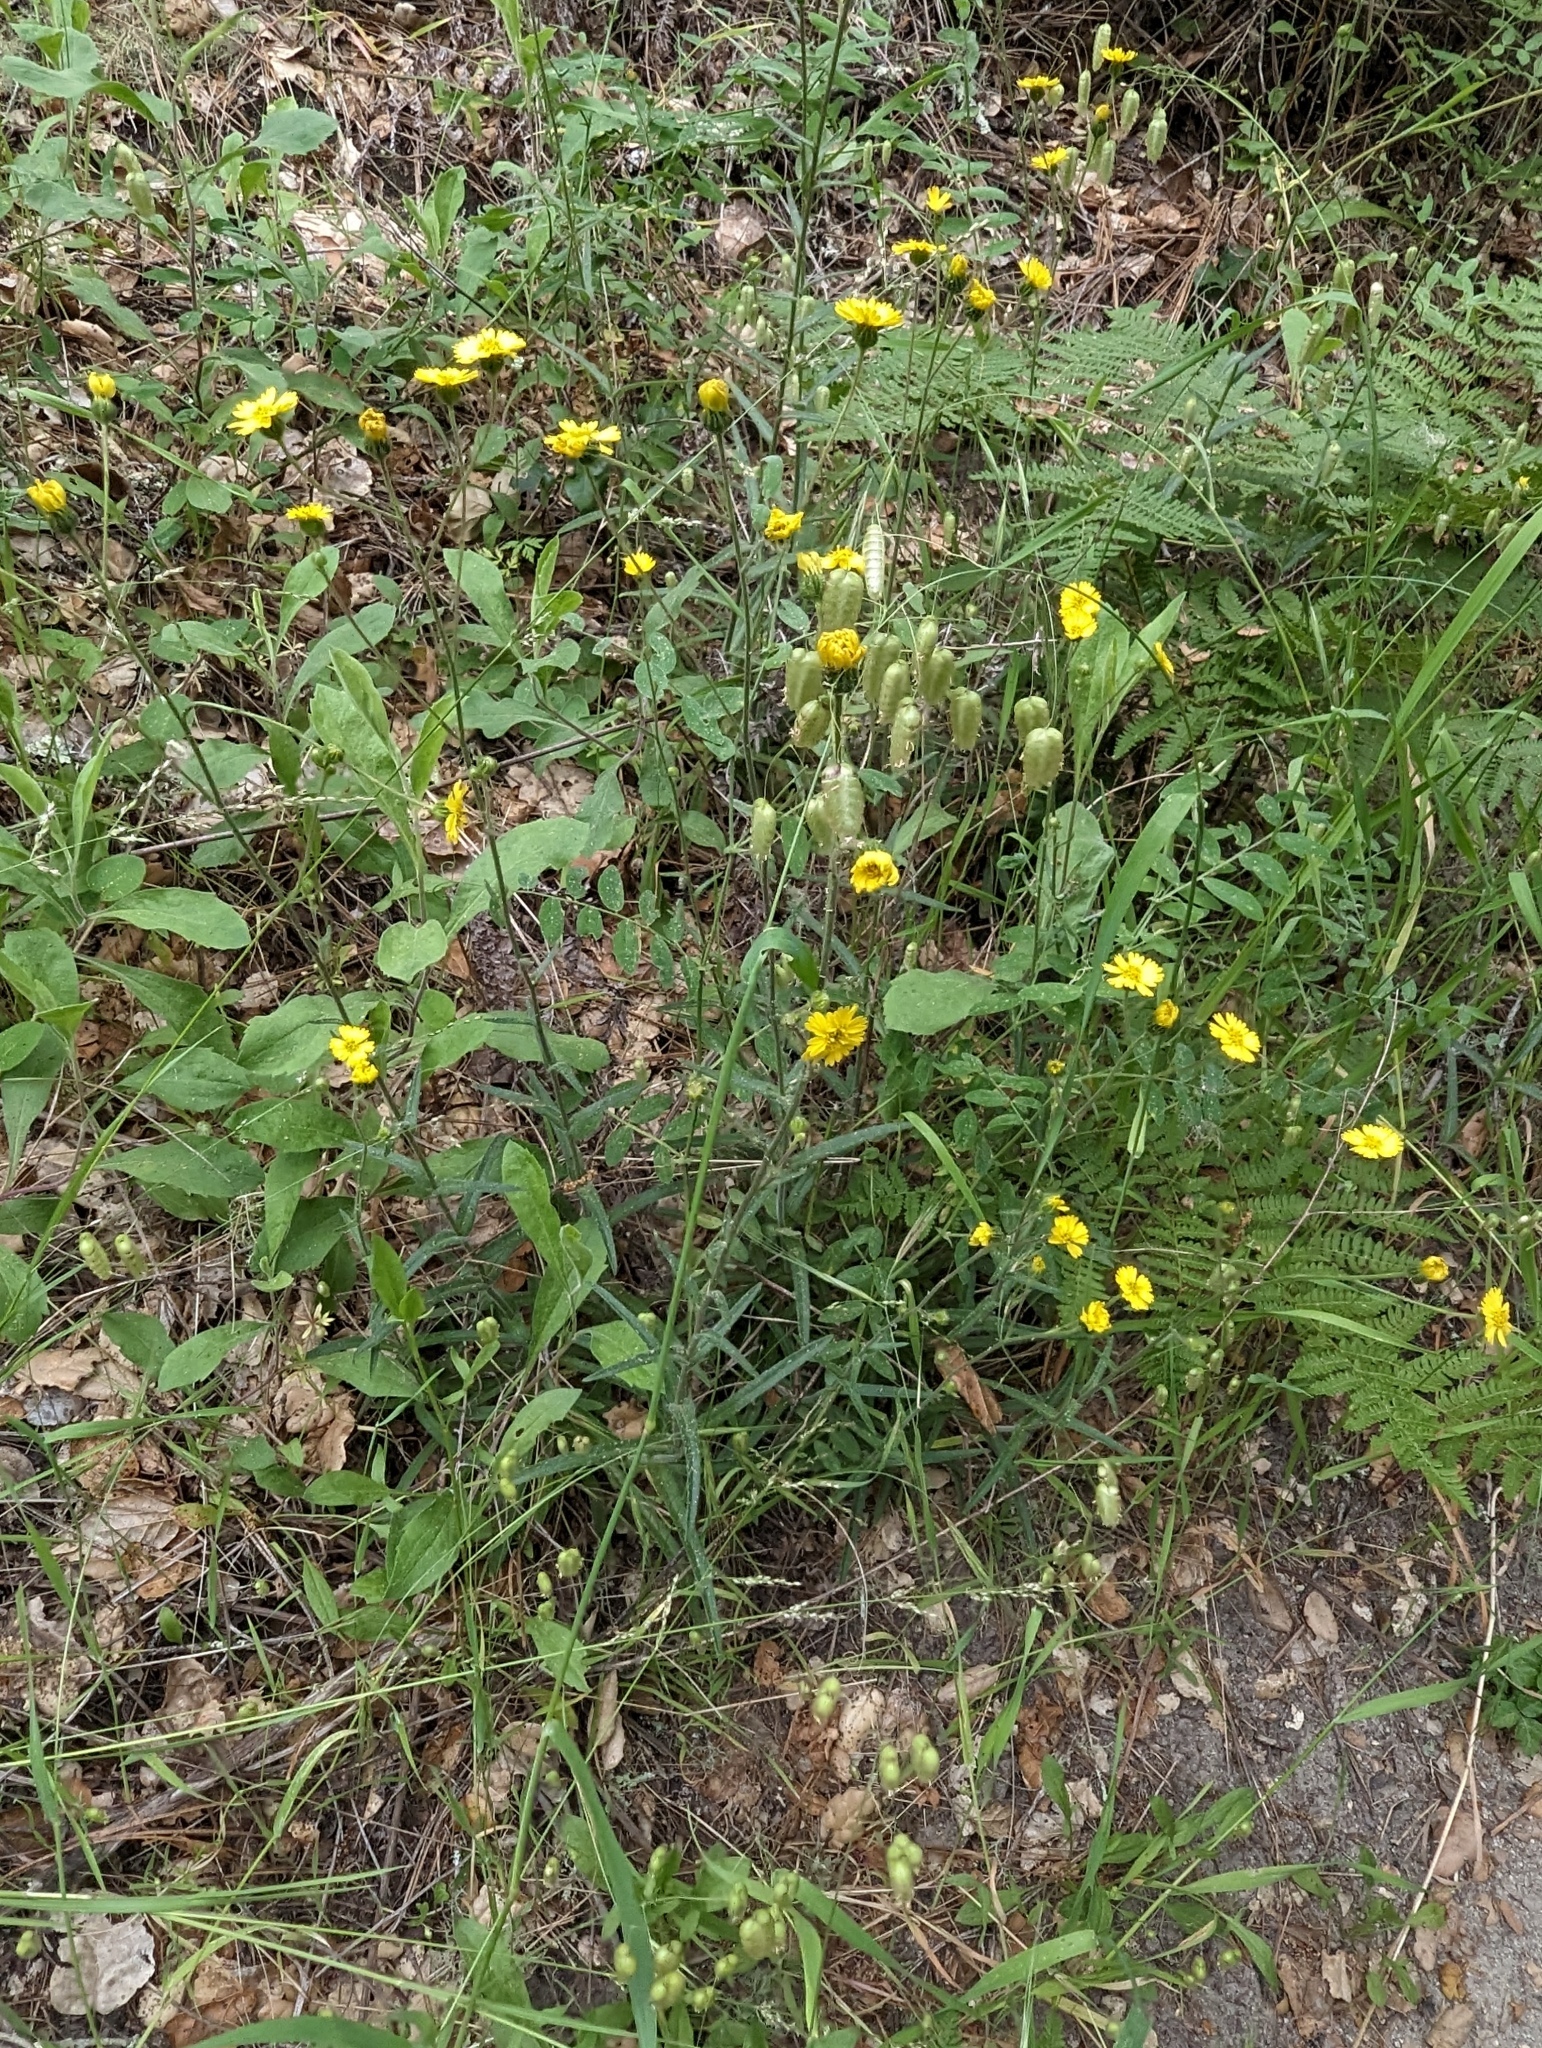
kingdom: Plantae
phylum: Tracheophyta
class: Magnoliopsida
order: Asterales
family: Asteraceae
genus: Anisocarpus
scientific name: Anisocarpus madioides
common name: Woodland madia
